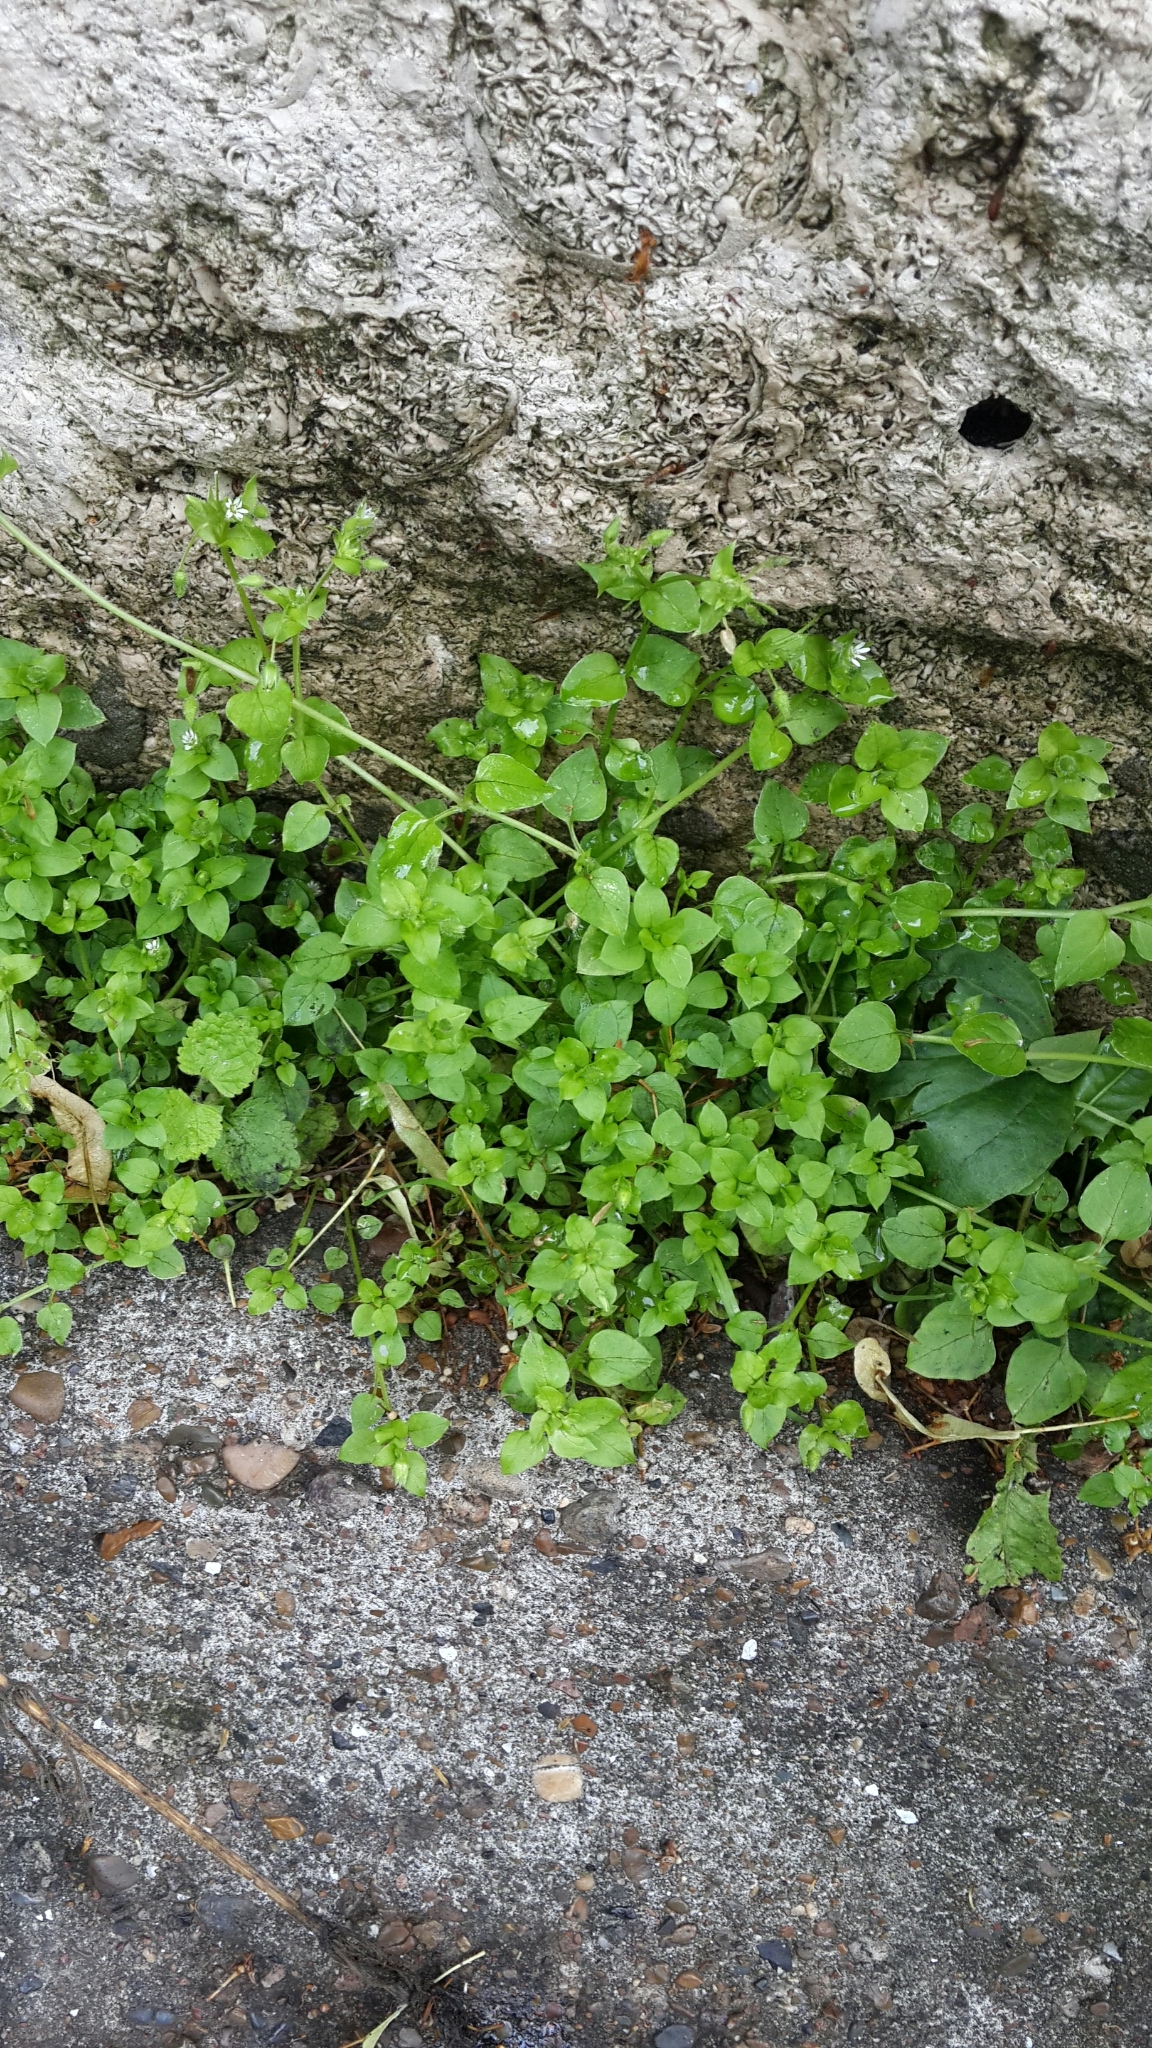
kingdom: Plantae
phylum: Tracheophyta
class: Magnoliopsida
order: Caryophyllales
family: Caryophyllaceae
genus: Stellaria
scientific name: Stellaria media
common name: Common chickweed
